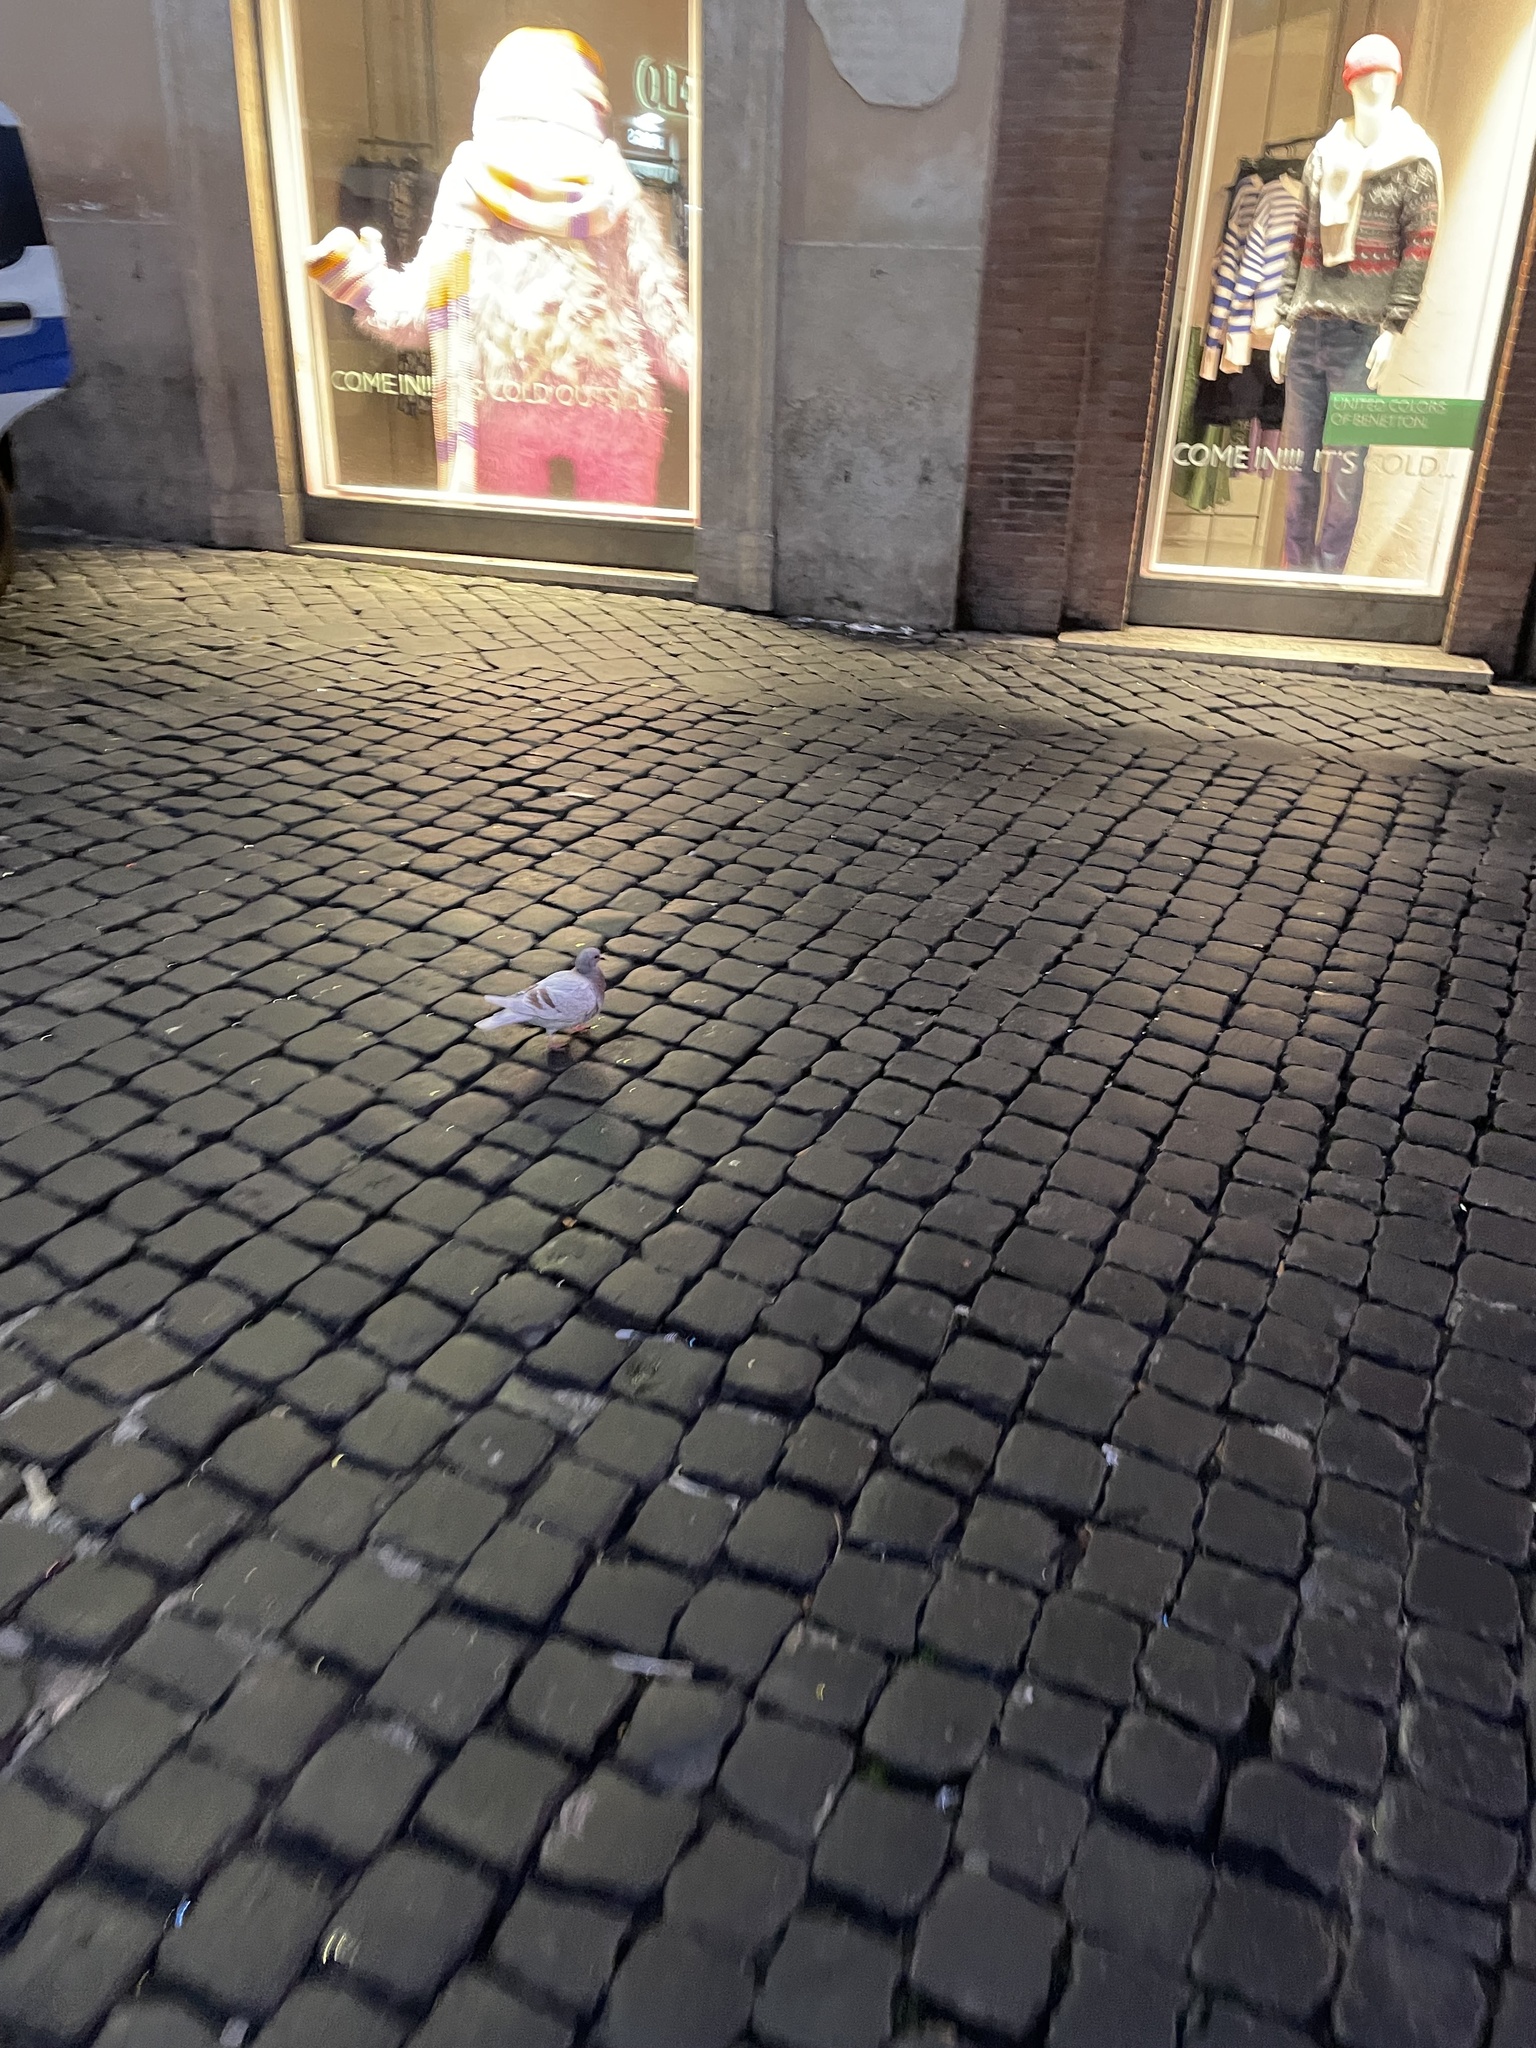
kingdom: Animalia
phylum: Chordata
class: Aves
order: Columbiformes
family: Columbidae
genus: Columba
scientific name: Columba livia
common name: Rock pigeon
